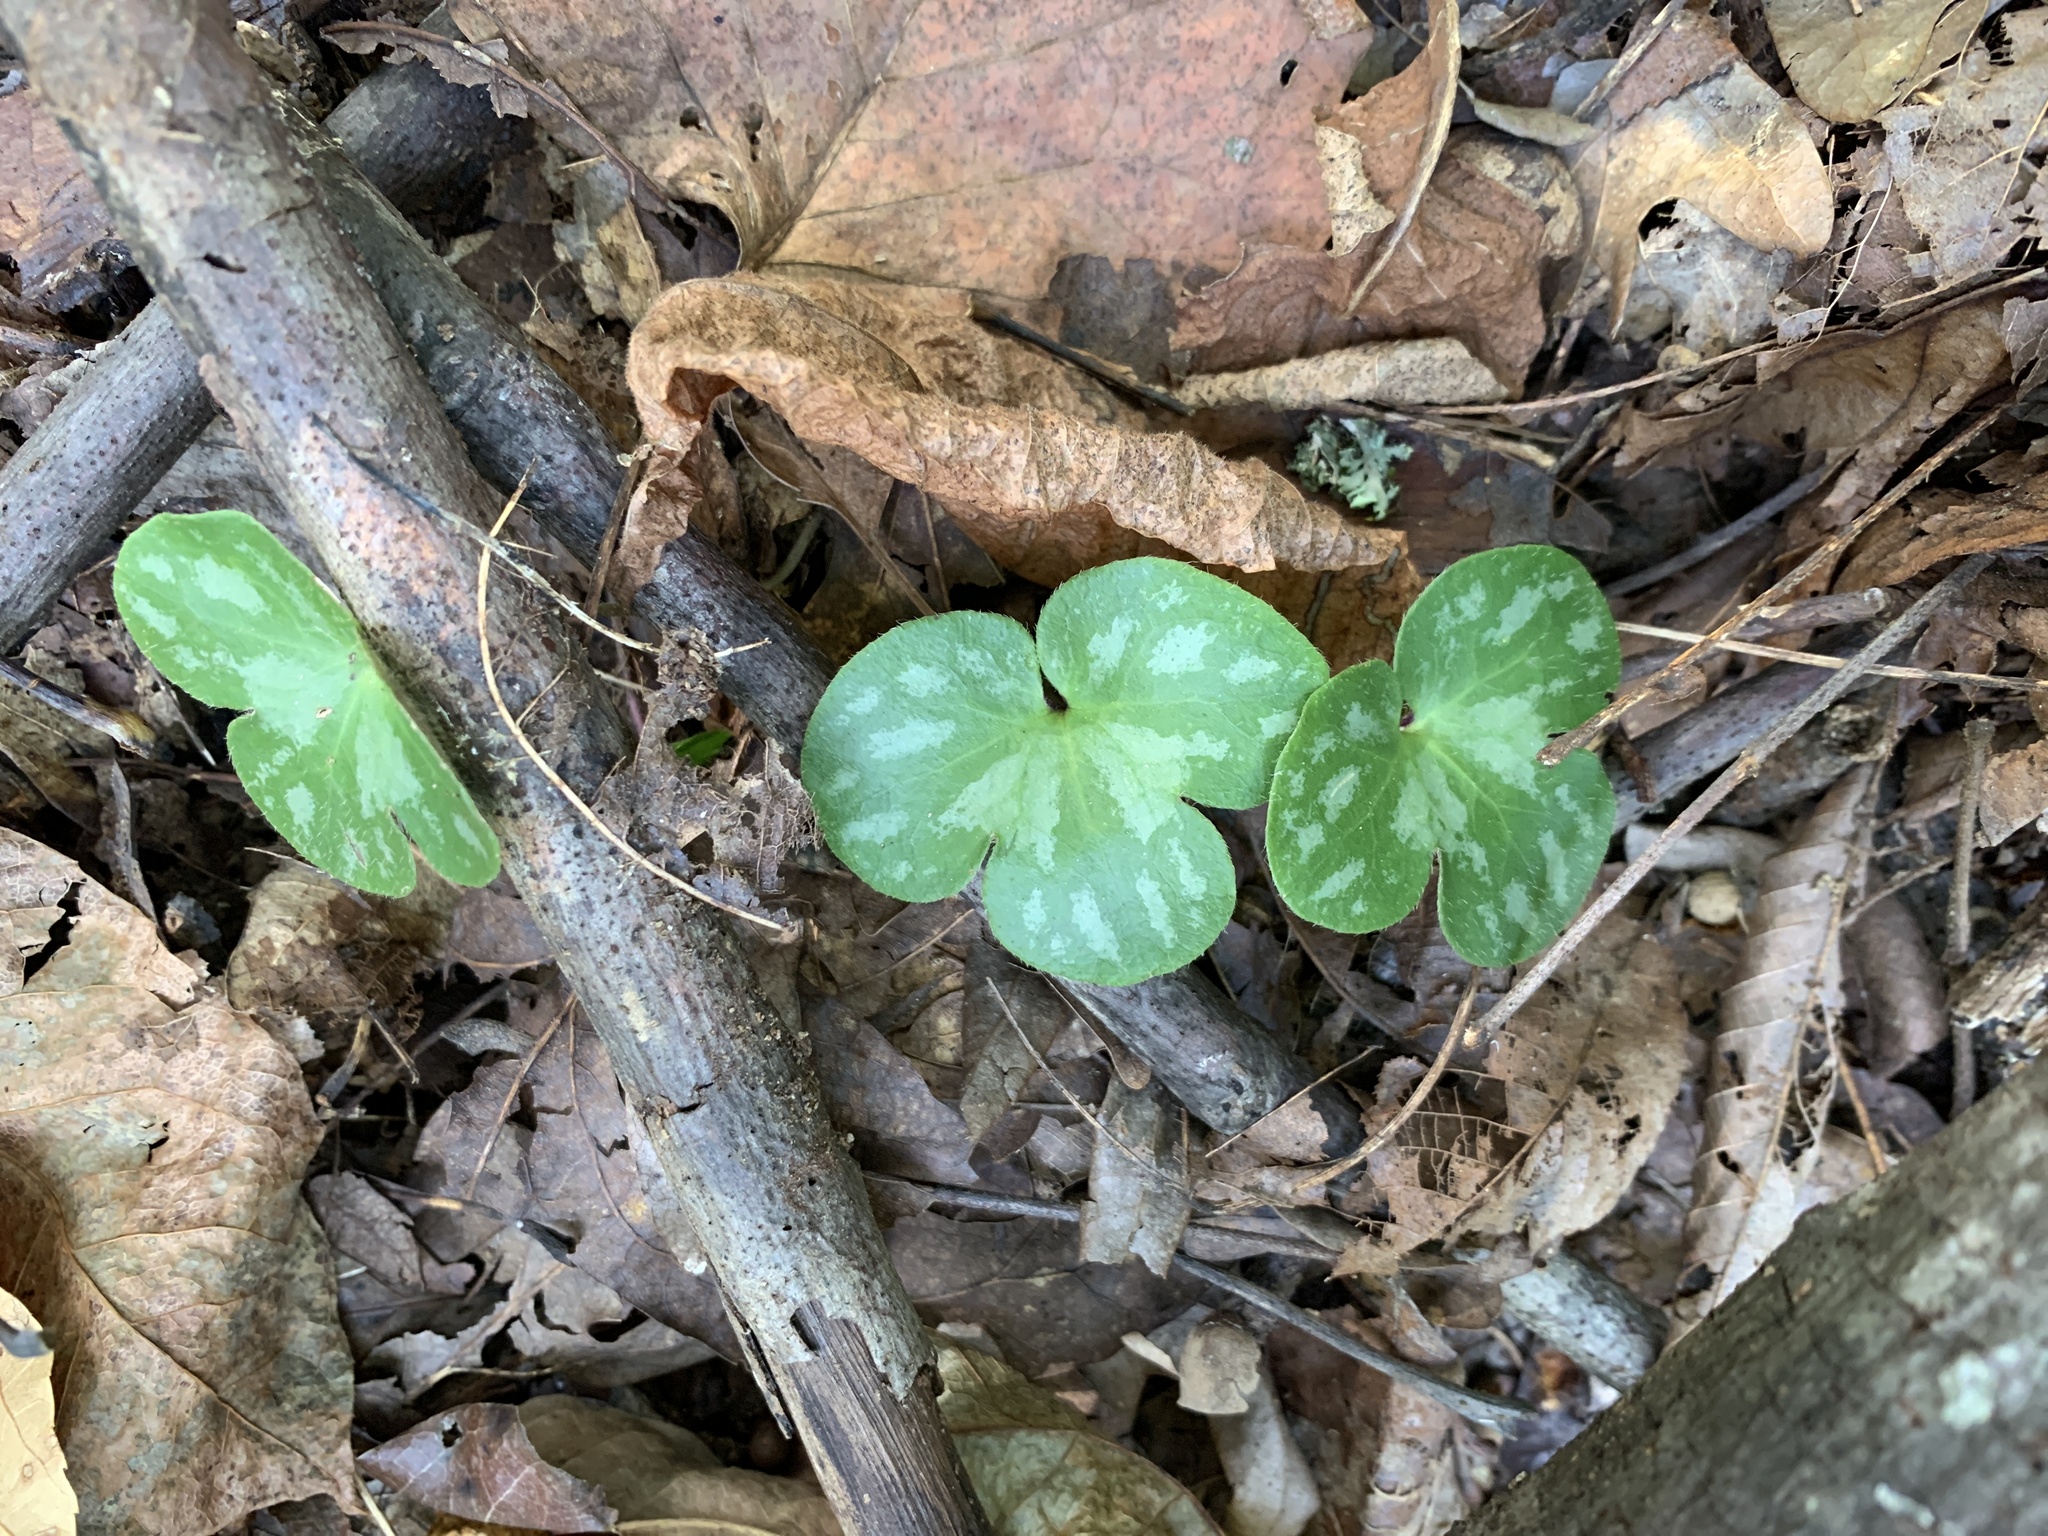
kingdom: Plantae
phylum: Tracheophyta
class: Magnoliopsida
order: Ranunculales
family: Ranunculaceae
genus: Hepatica
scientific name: Hepatica americana
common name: American hepatica
